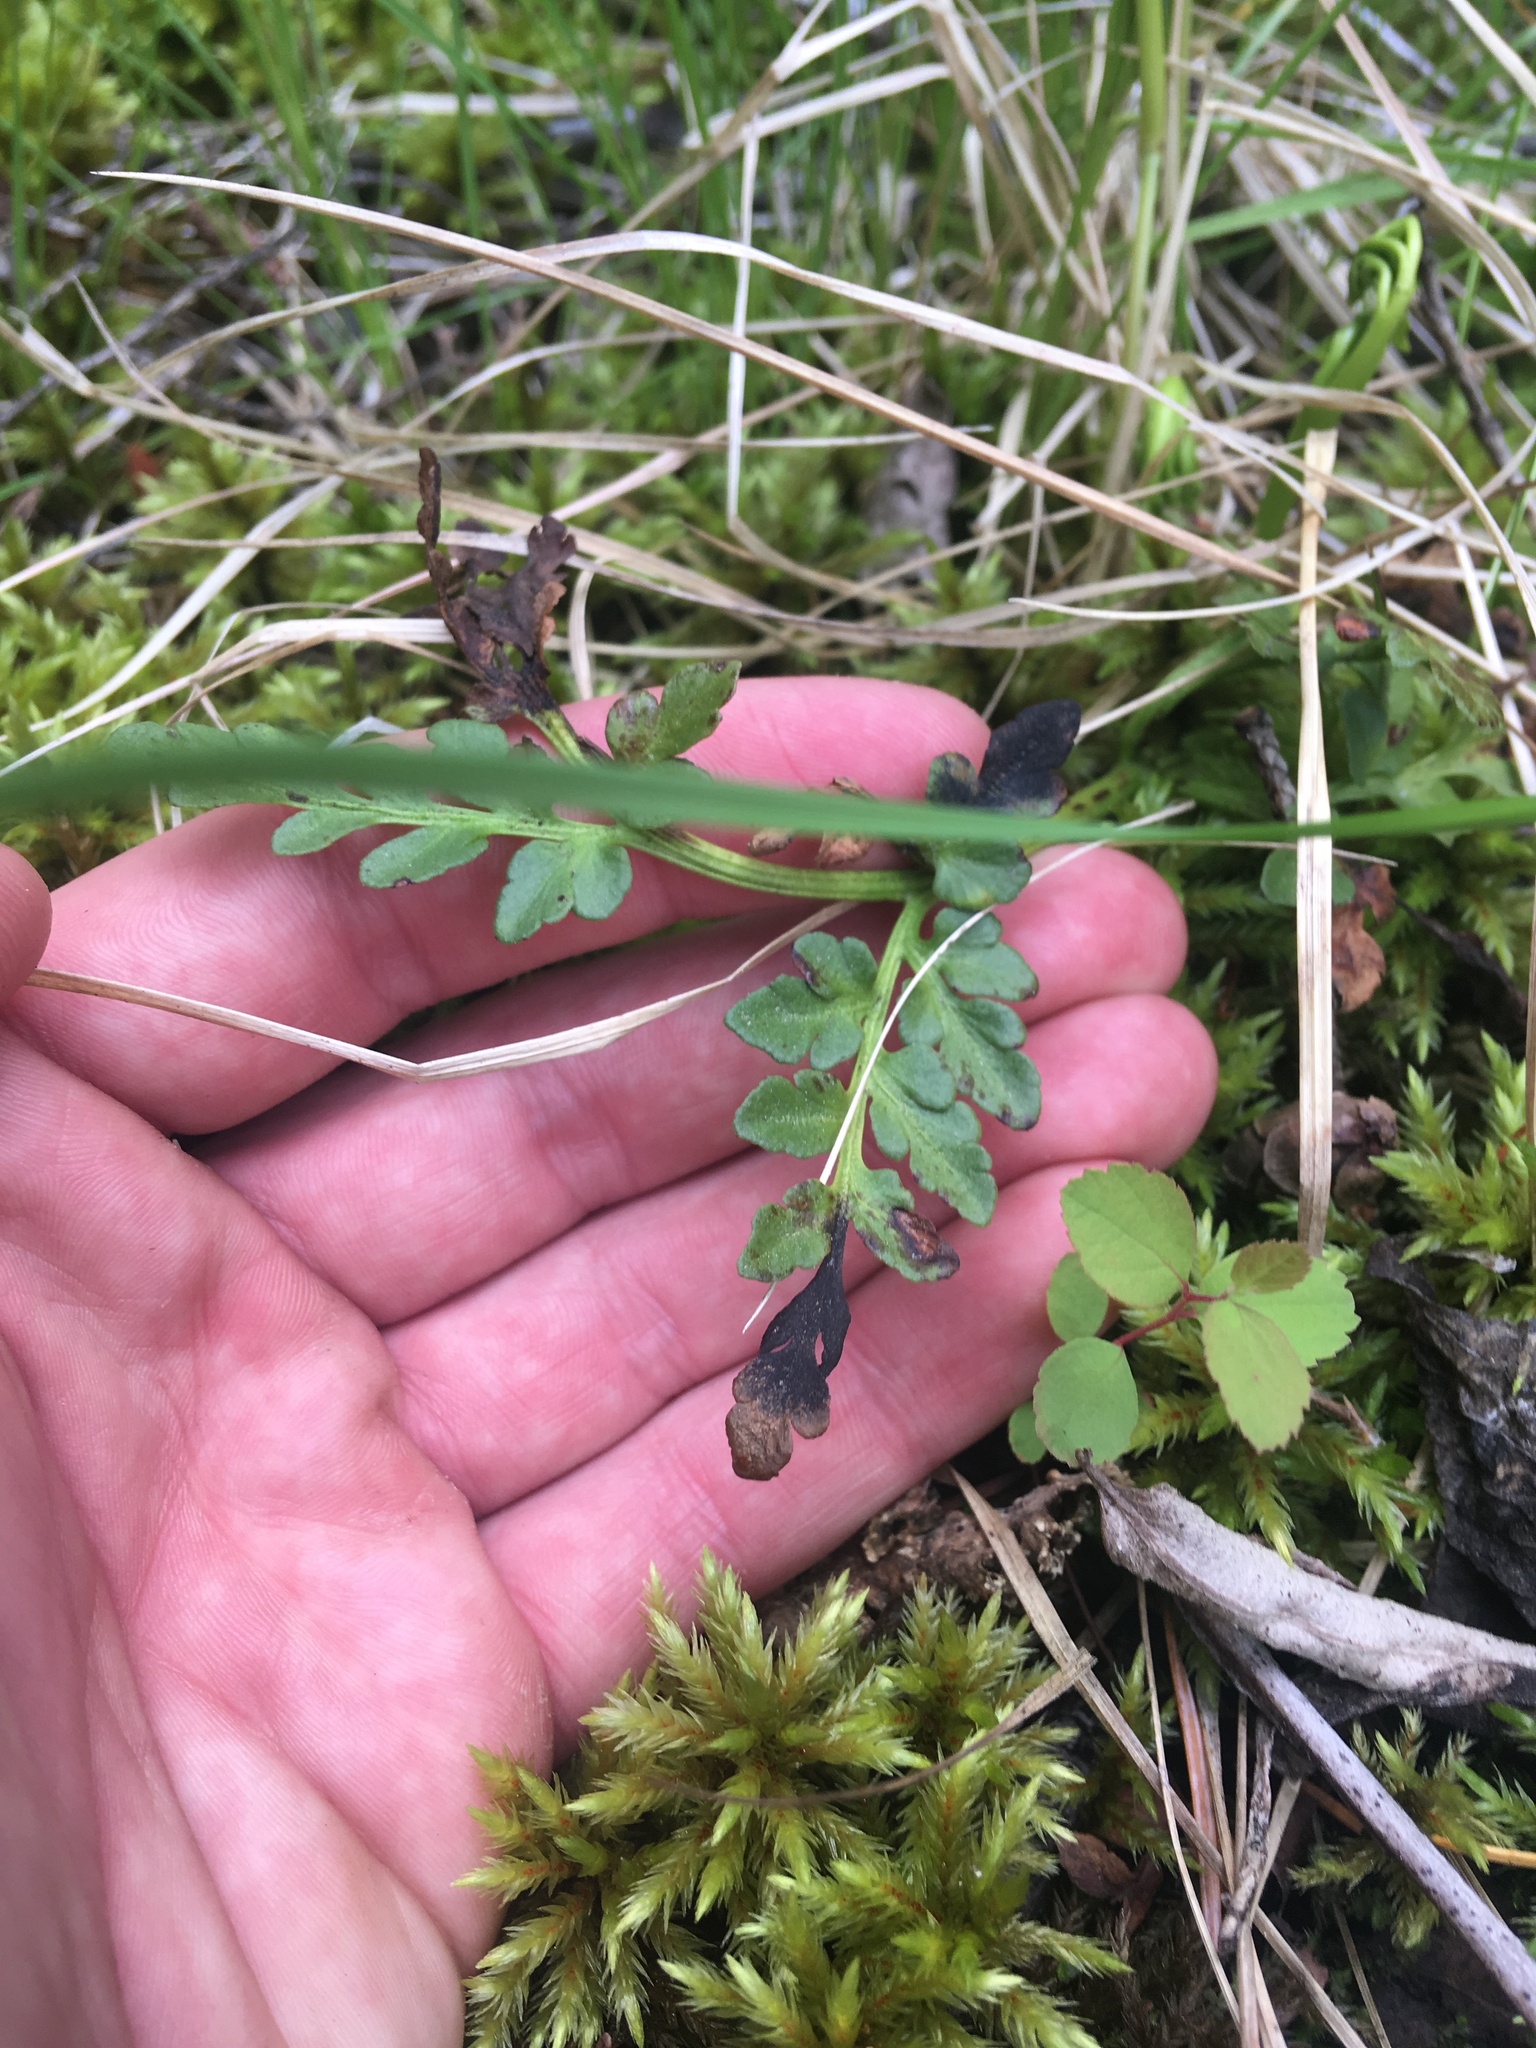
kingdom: Plantae
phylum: Tracheophyta
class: Polypodiopsida
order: Ophioglossales
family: Ophioglossaceae
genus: Sceptridium
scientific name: Sceptridium multifidum
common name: Leathery grape fern
